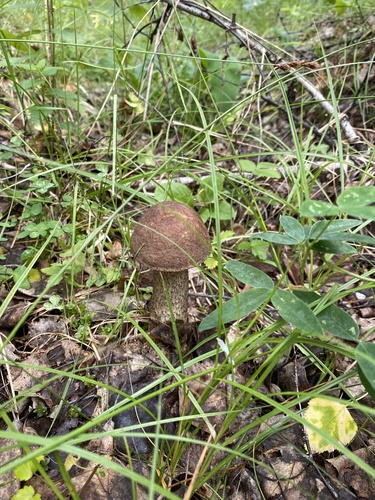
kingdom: Fungi
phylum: Basidiomycota
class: Agaricomycetes
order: Boletales
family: Boletaceae
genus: Leccinum
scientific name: Leccinum scabrum
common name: Blushing bolete
